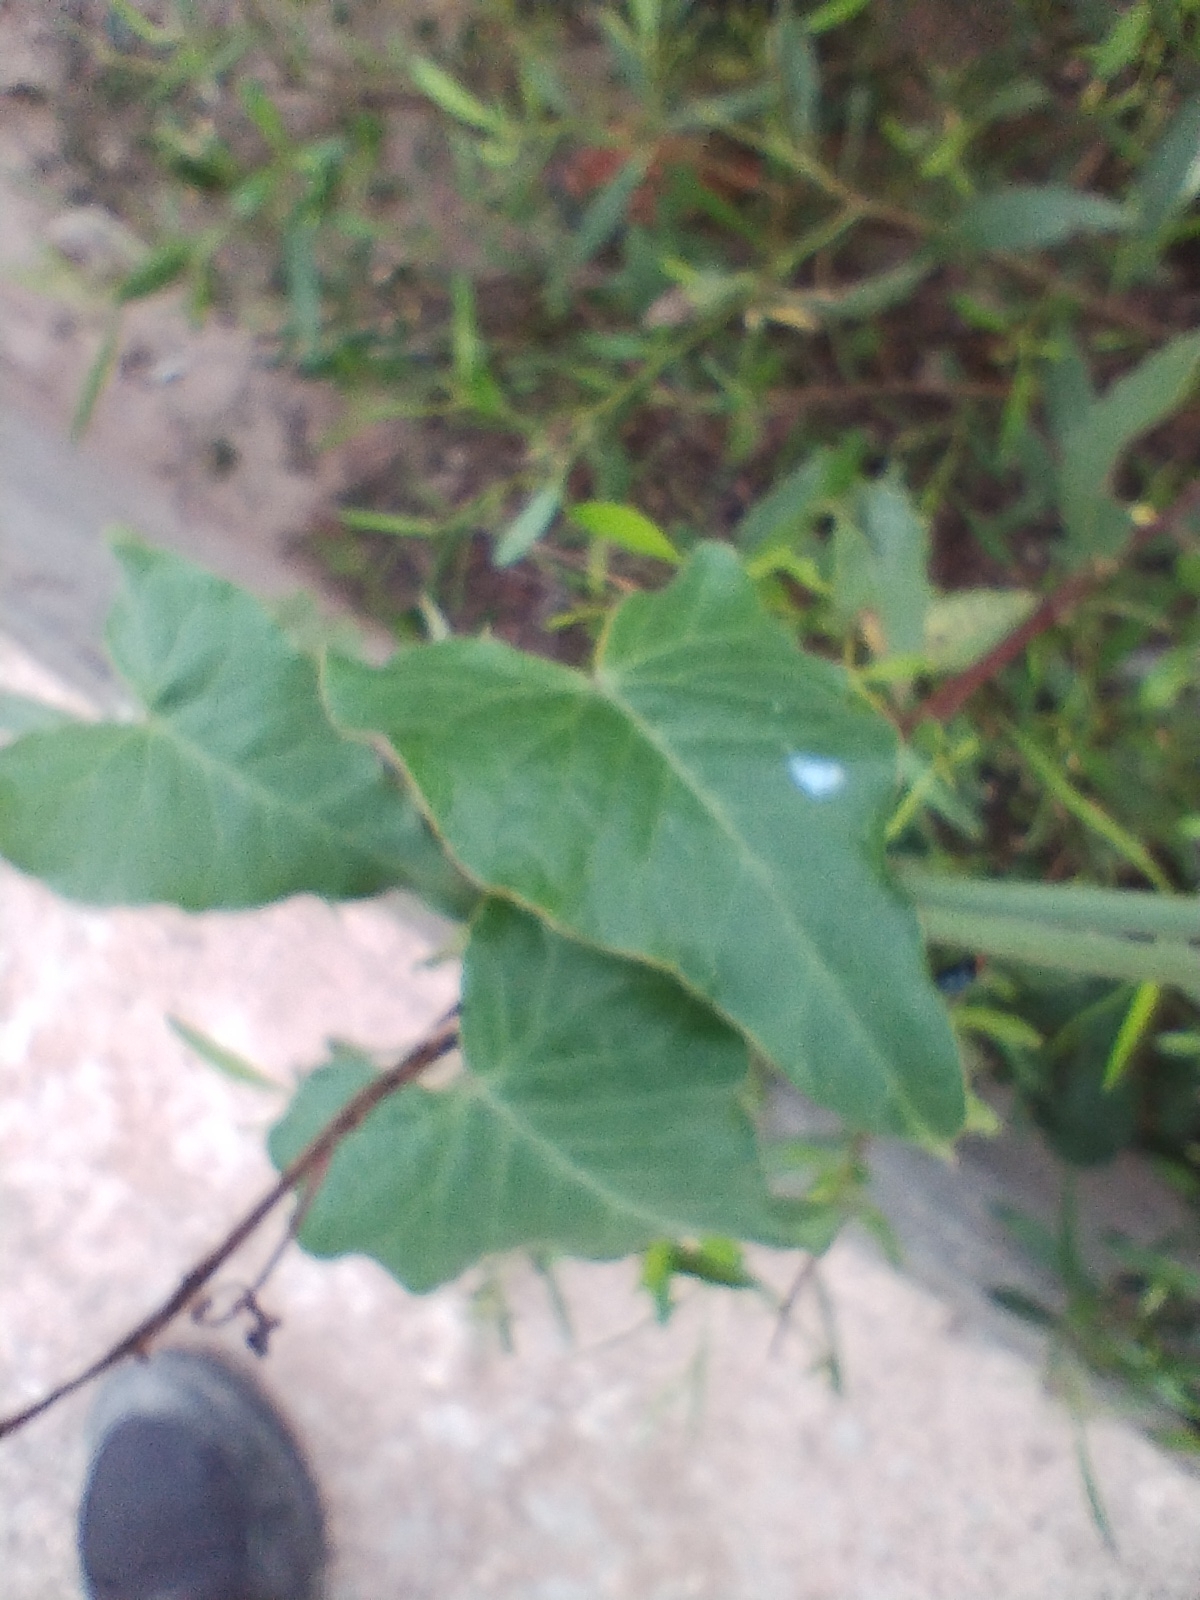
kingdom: Plantae
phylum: Tracheophyta
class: Magnoliopsida
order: Gentianales
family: Apocynaceae
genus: Araujia
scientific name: Araujia odorata
